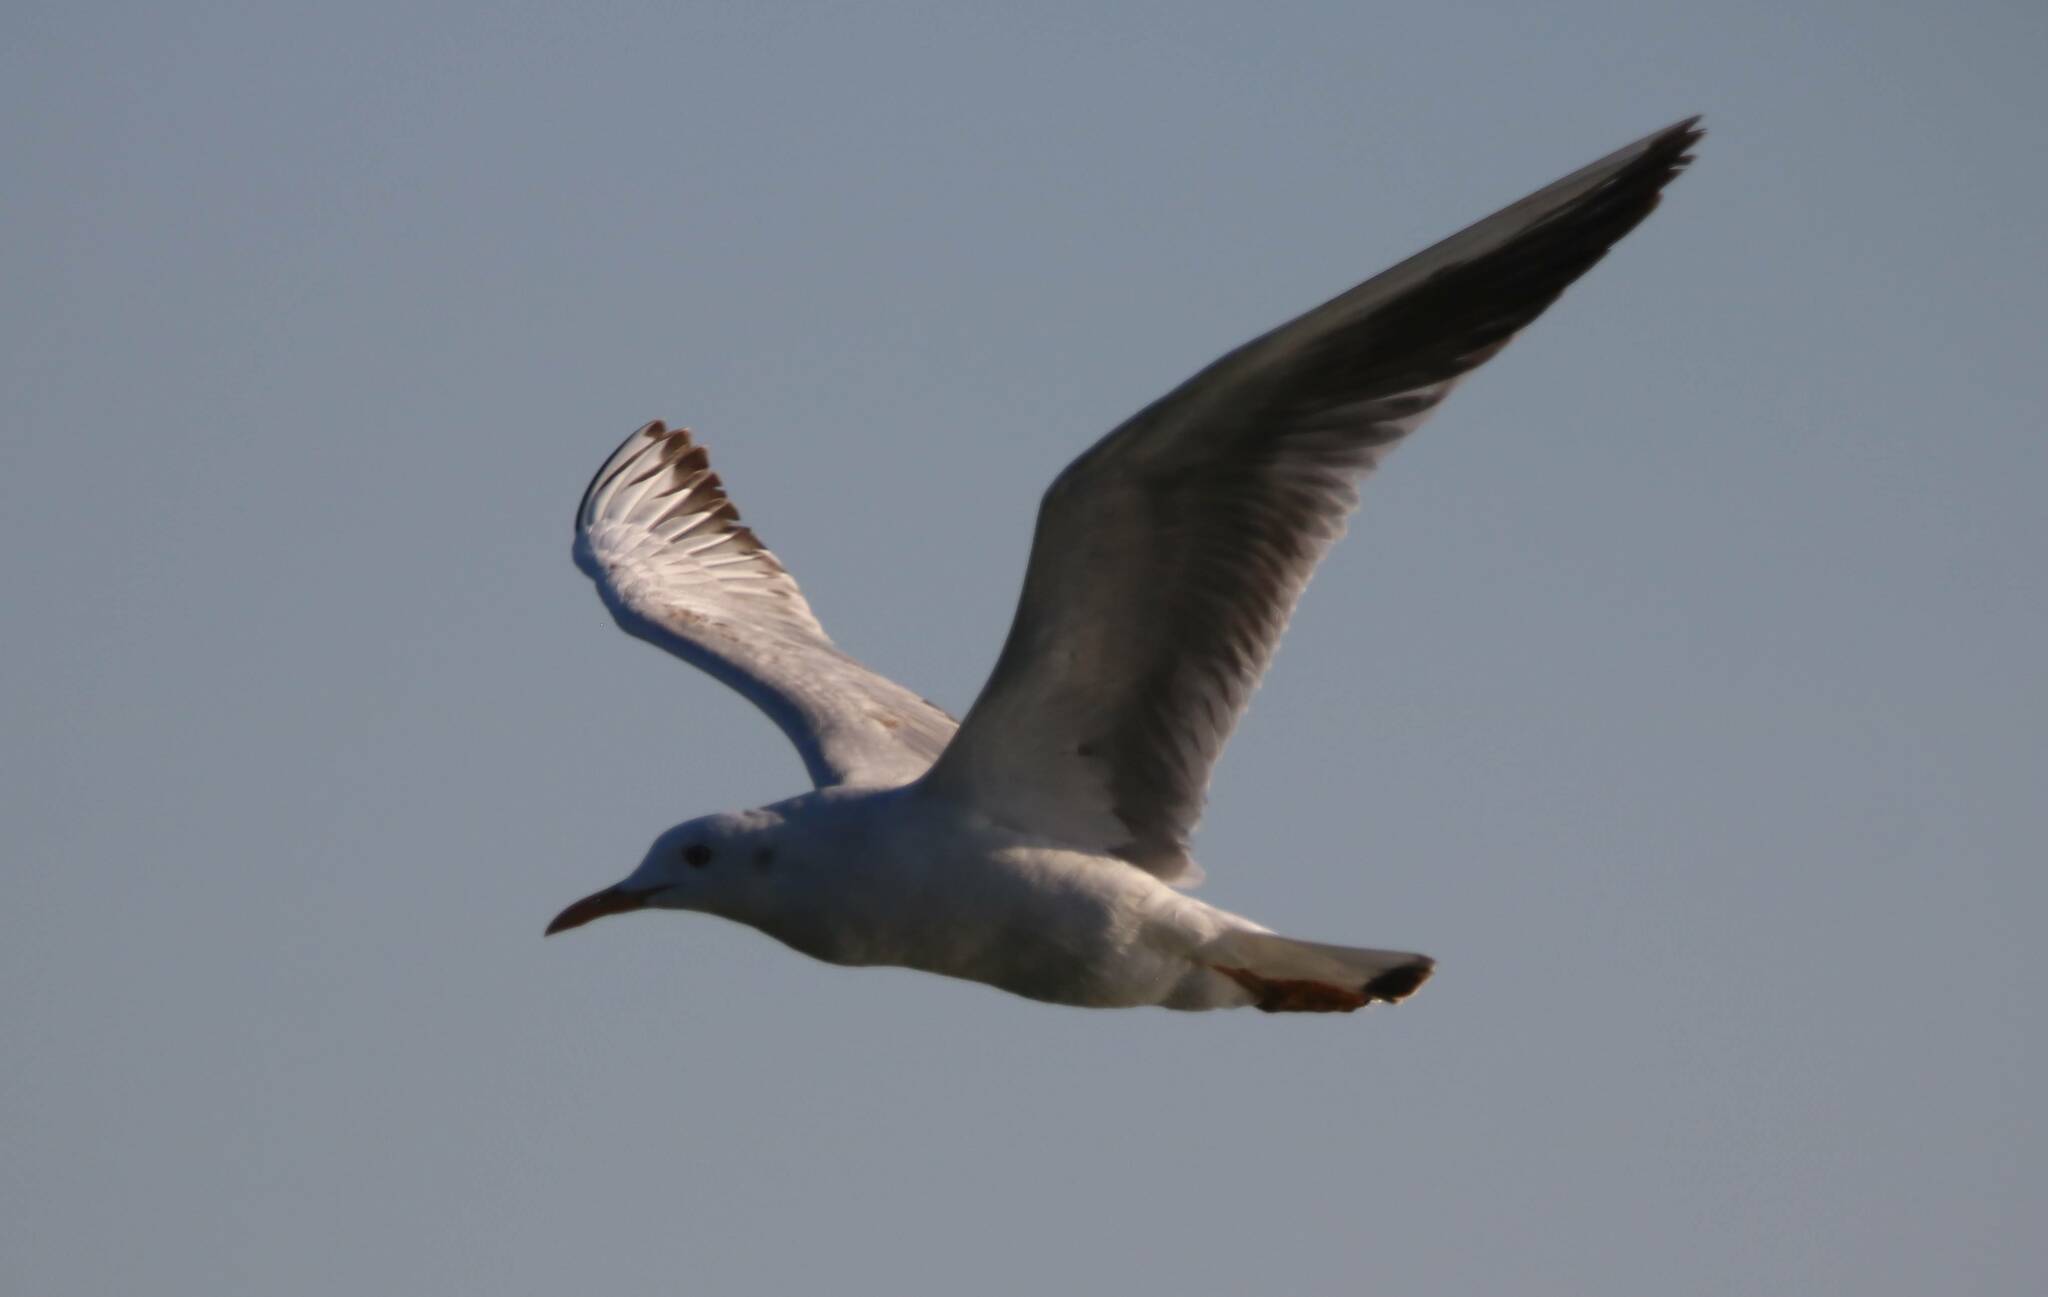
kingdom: Animalia
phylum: Chordata
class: Aves
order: Charadriiformes
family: Laridae
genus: Chroicocephalus
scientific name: Chroicocephalus genei
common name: Slender-billed gull
